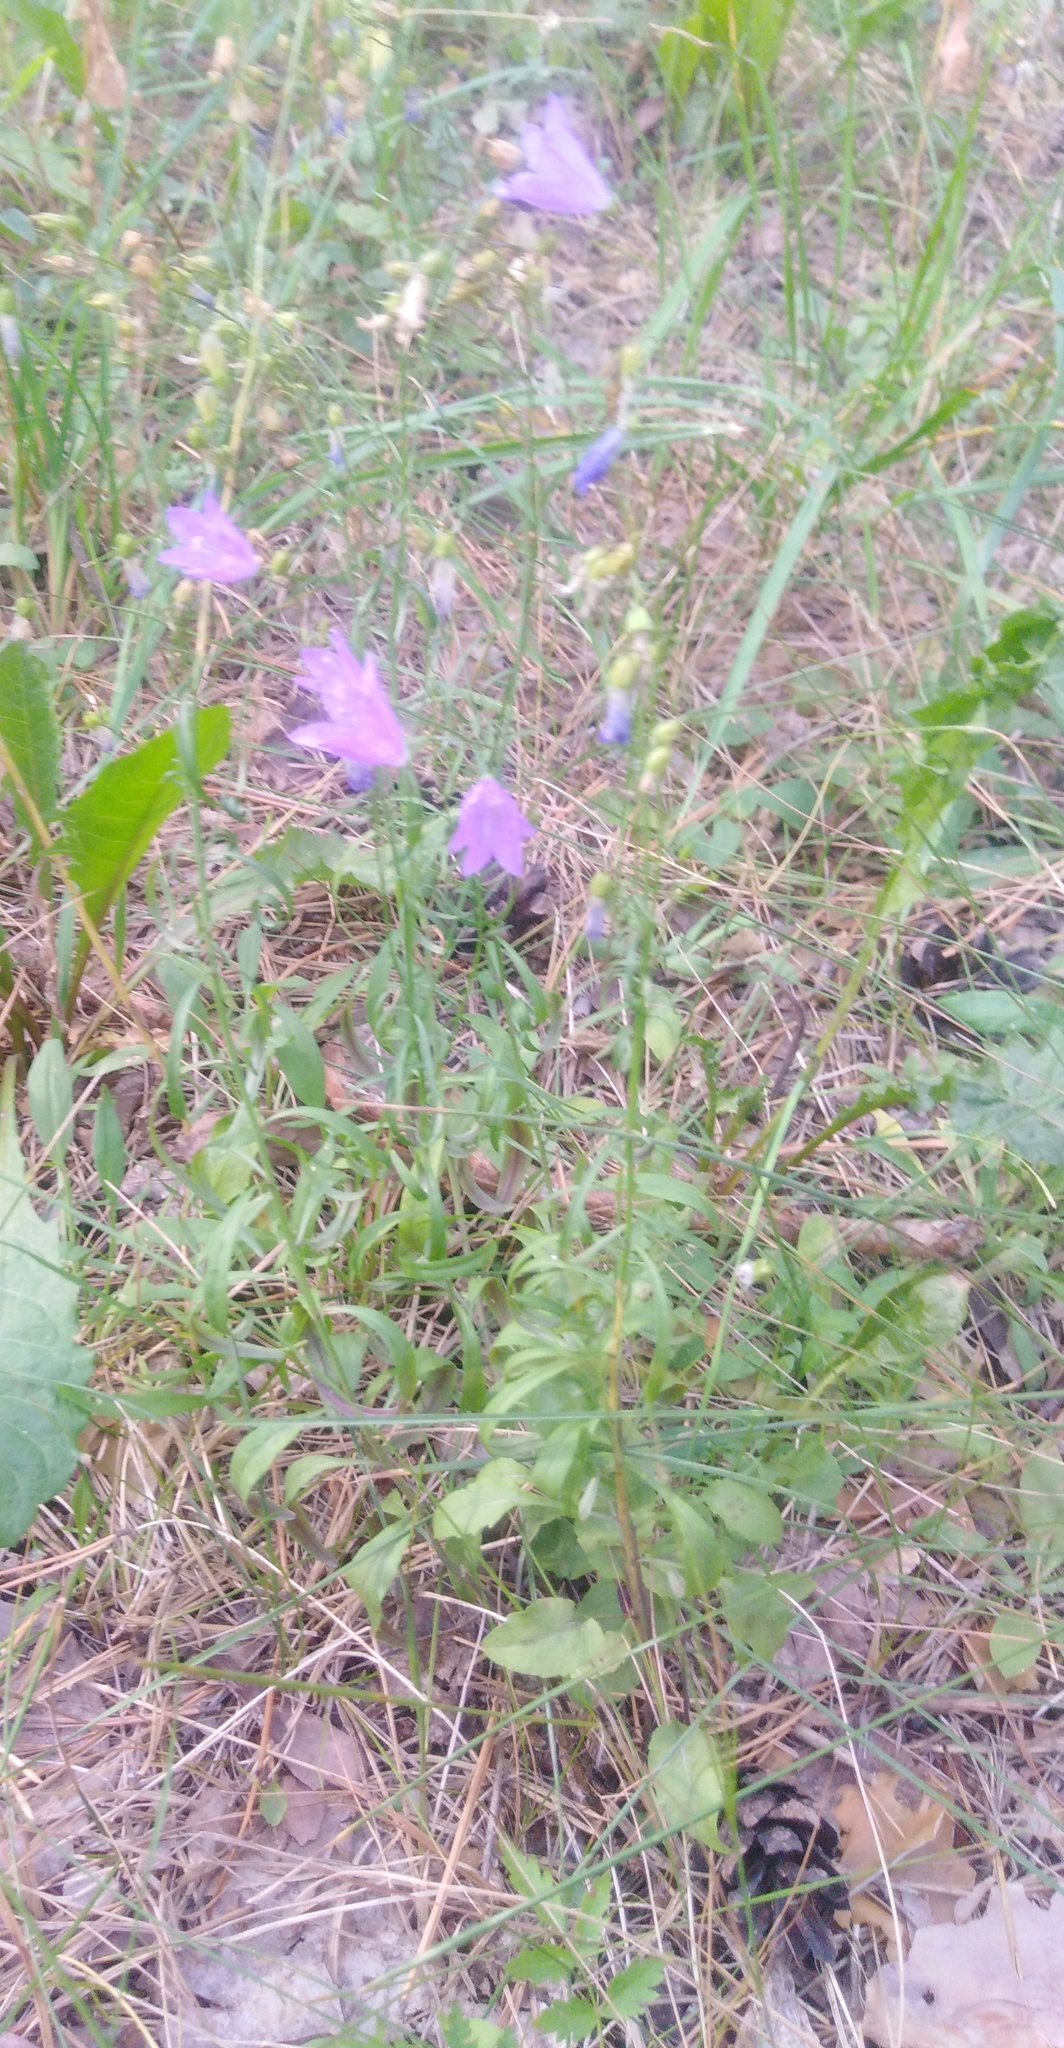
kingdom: Plantae
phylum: Tracheophyta
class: Magnoliopsida
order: Asterales
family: Campanulaceae
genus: Campanula
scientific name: Campanula rotundifolia
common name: Harebell
